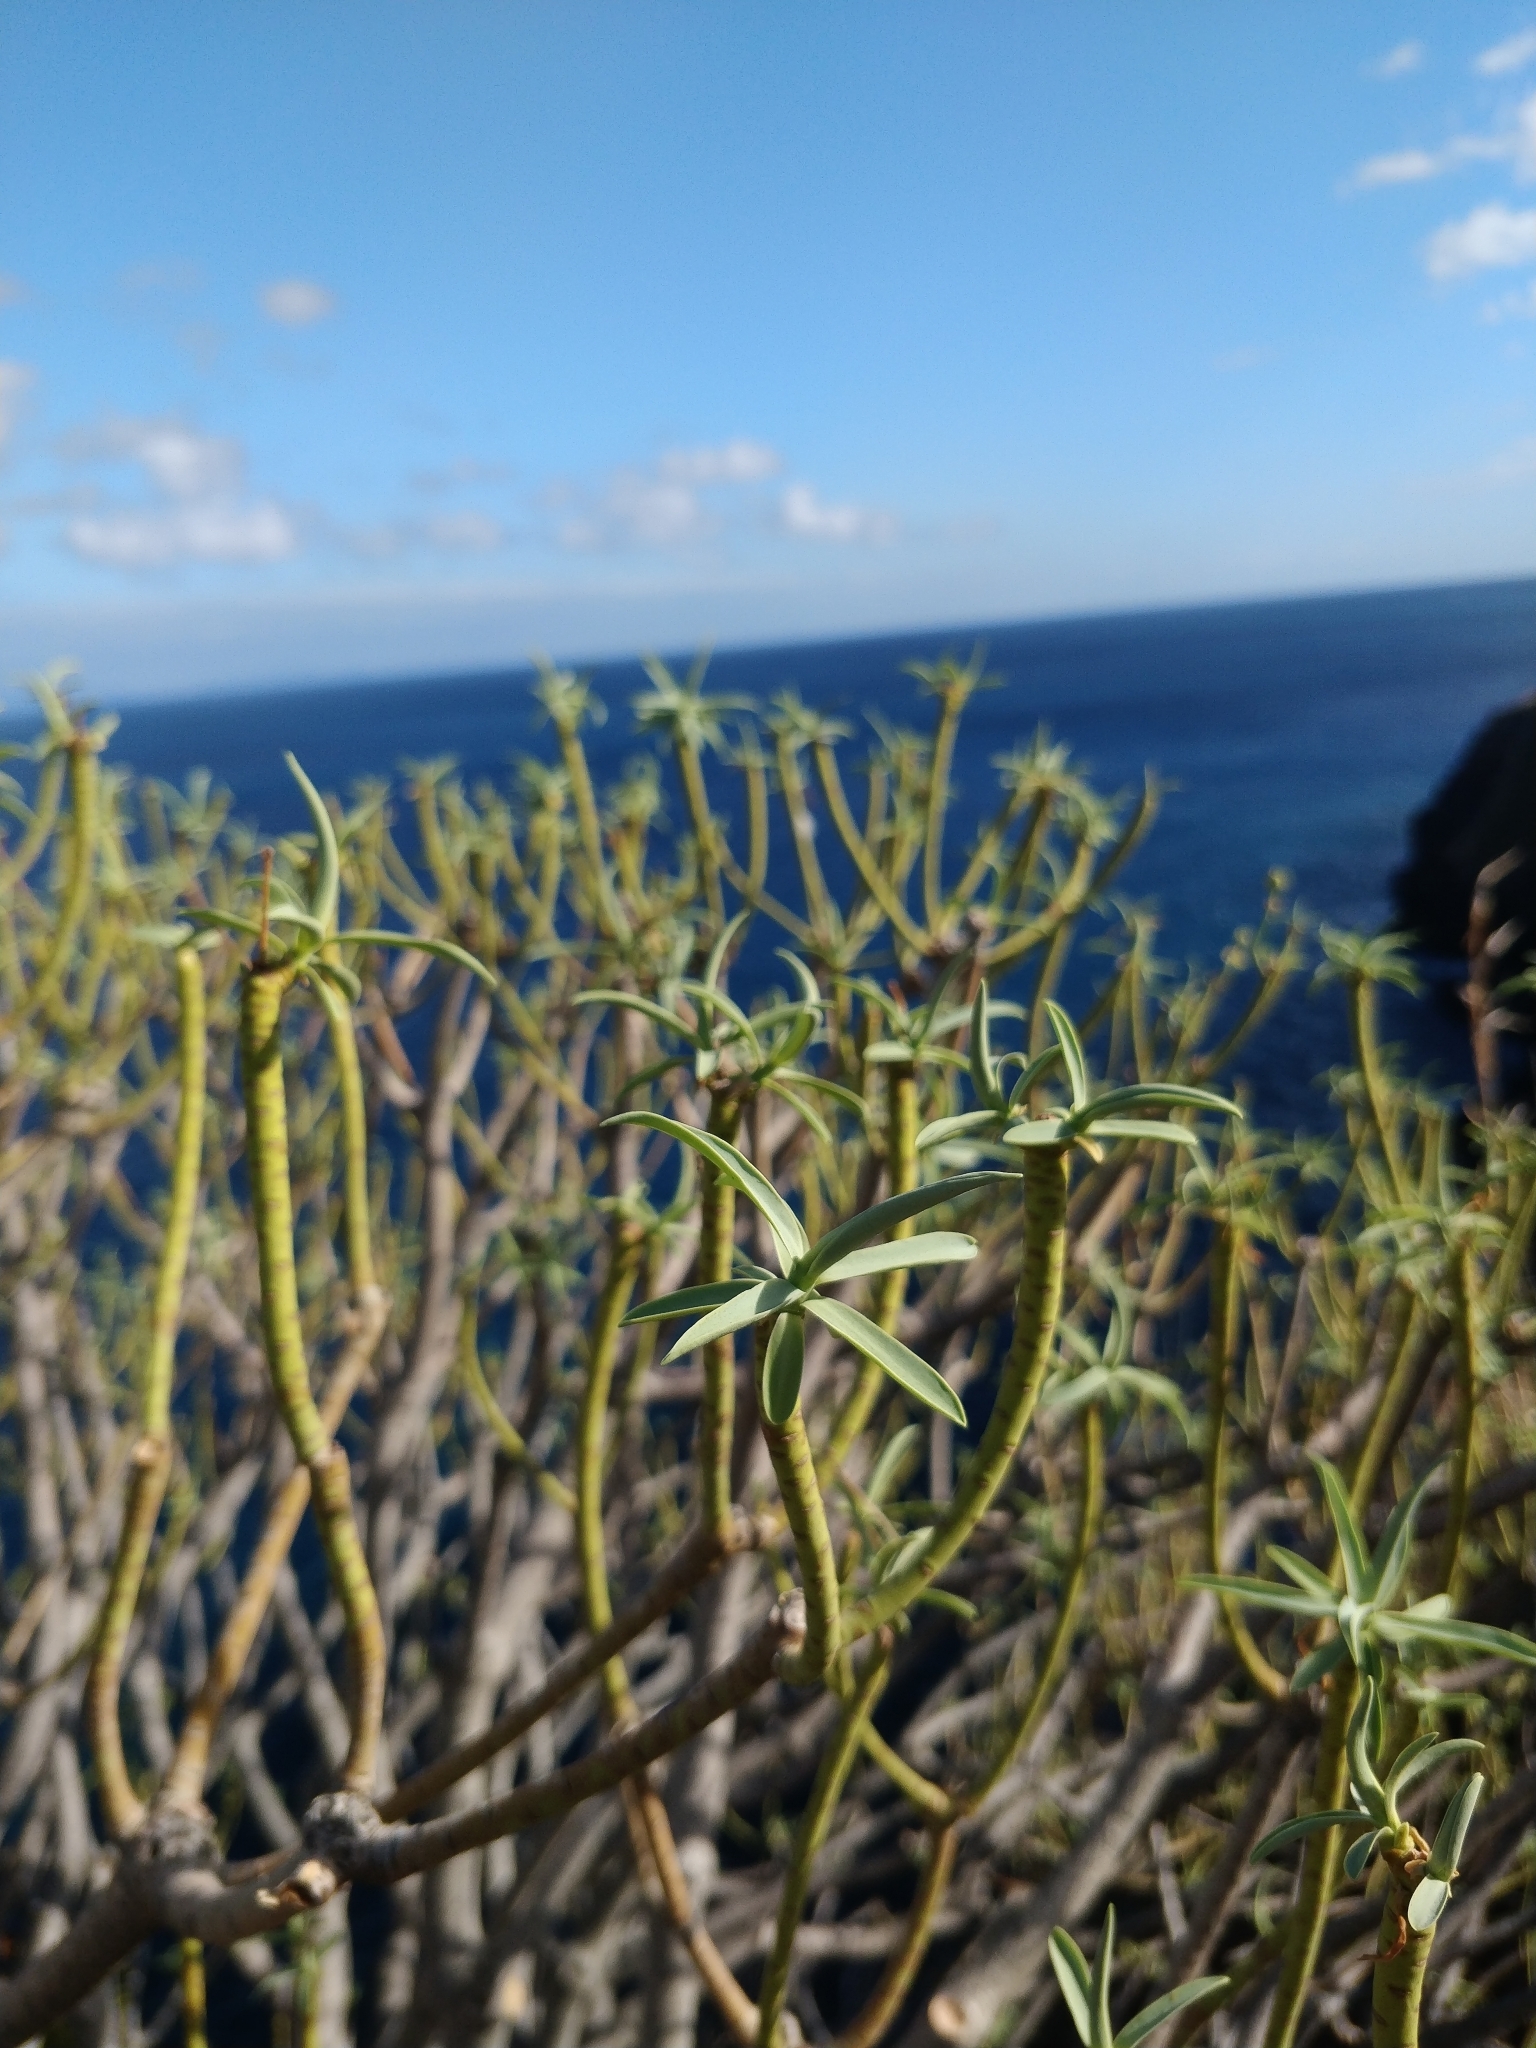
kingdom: Plantae
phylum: Tracheophyta
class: Magnoliopsida
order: Malpighiales
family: Euphorbiaceae
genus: Euphorbia
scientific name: Euphorbia piscatoria
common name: Fish-stunning spurge
